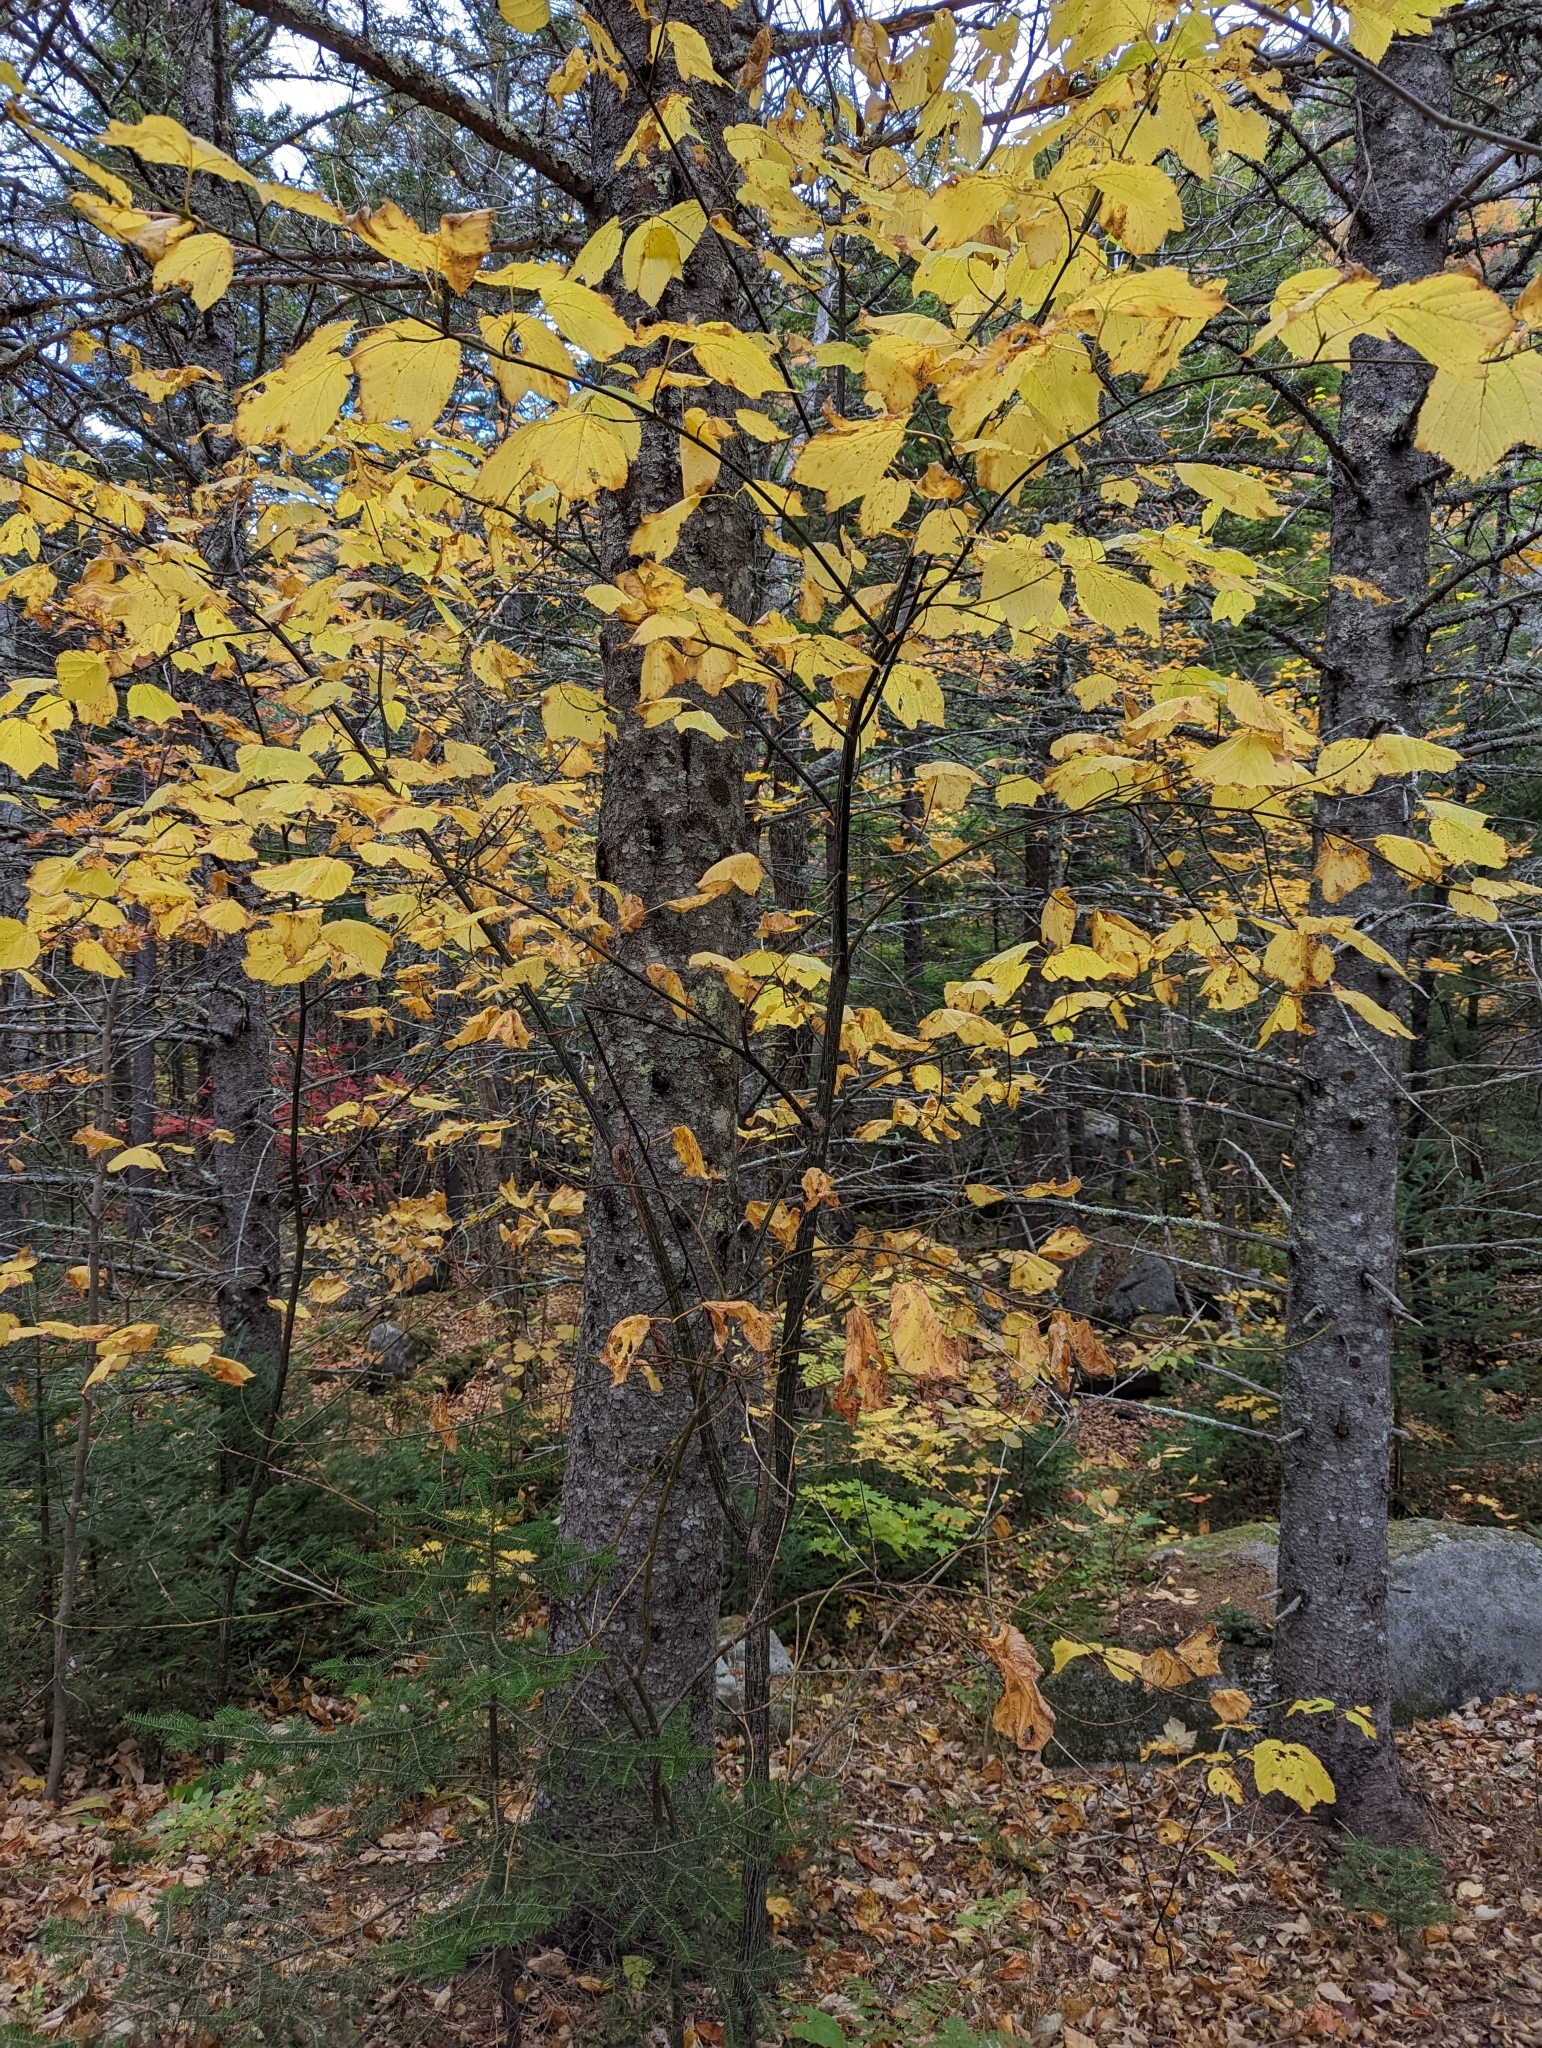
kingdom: Plantae
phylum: Tracheophyta
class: Magnoliopsida
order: Sapindales
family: Sapindaceae
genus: Acer
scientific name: Acer pensylvanicum
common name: Moosewood
